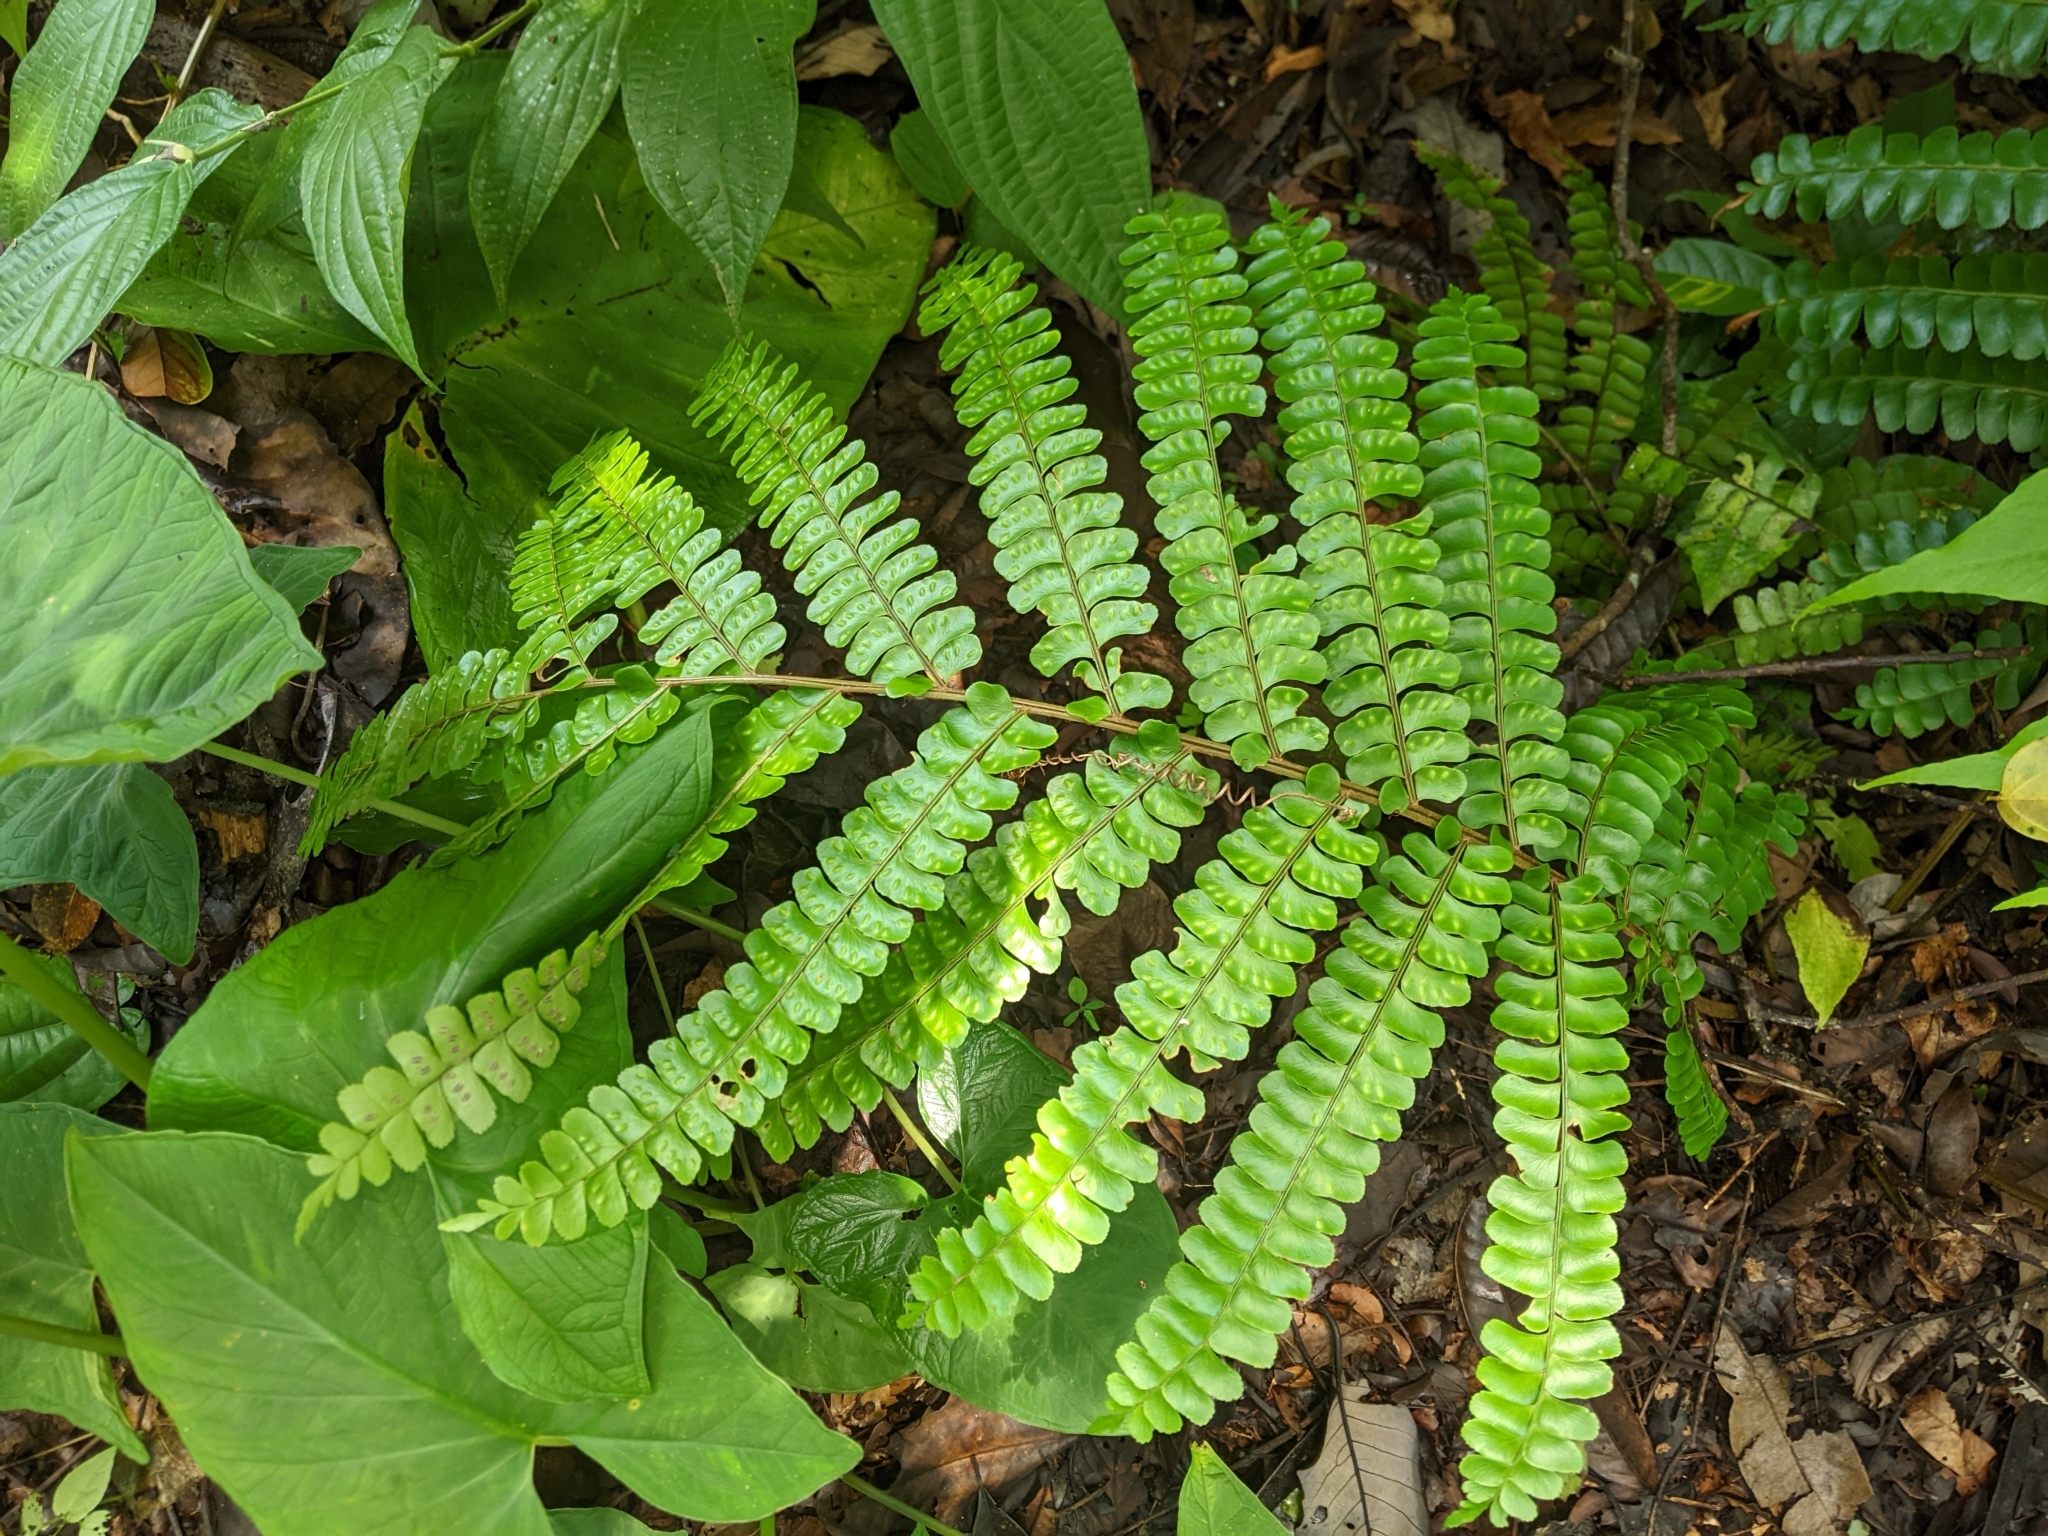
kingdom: Plantae
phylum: Tracheophyta
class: Polypodiopsida
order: Polypodiales
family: Didymochlaenaceae
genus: Didymochlaena
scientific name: Didymochlaena truncatula
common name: Mahogany fern
